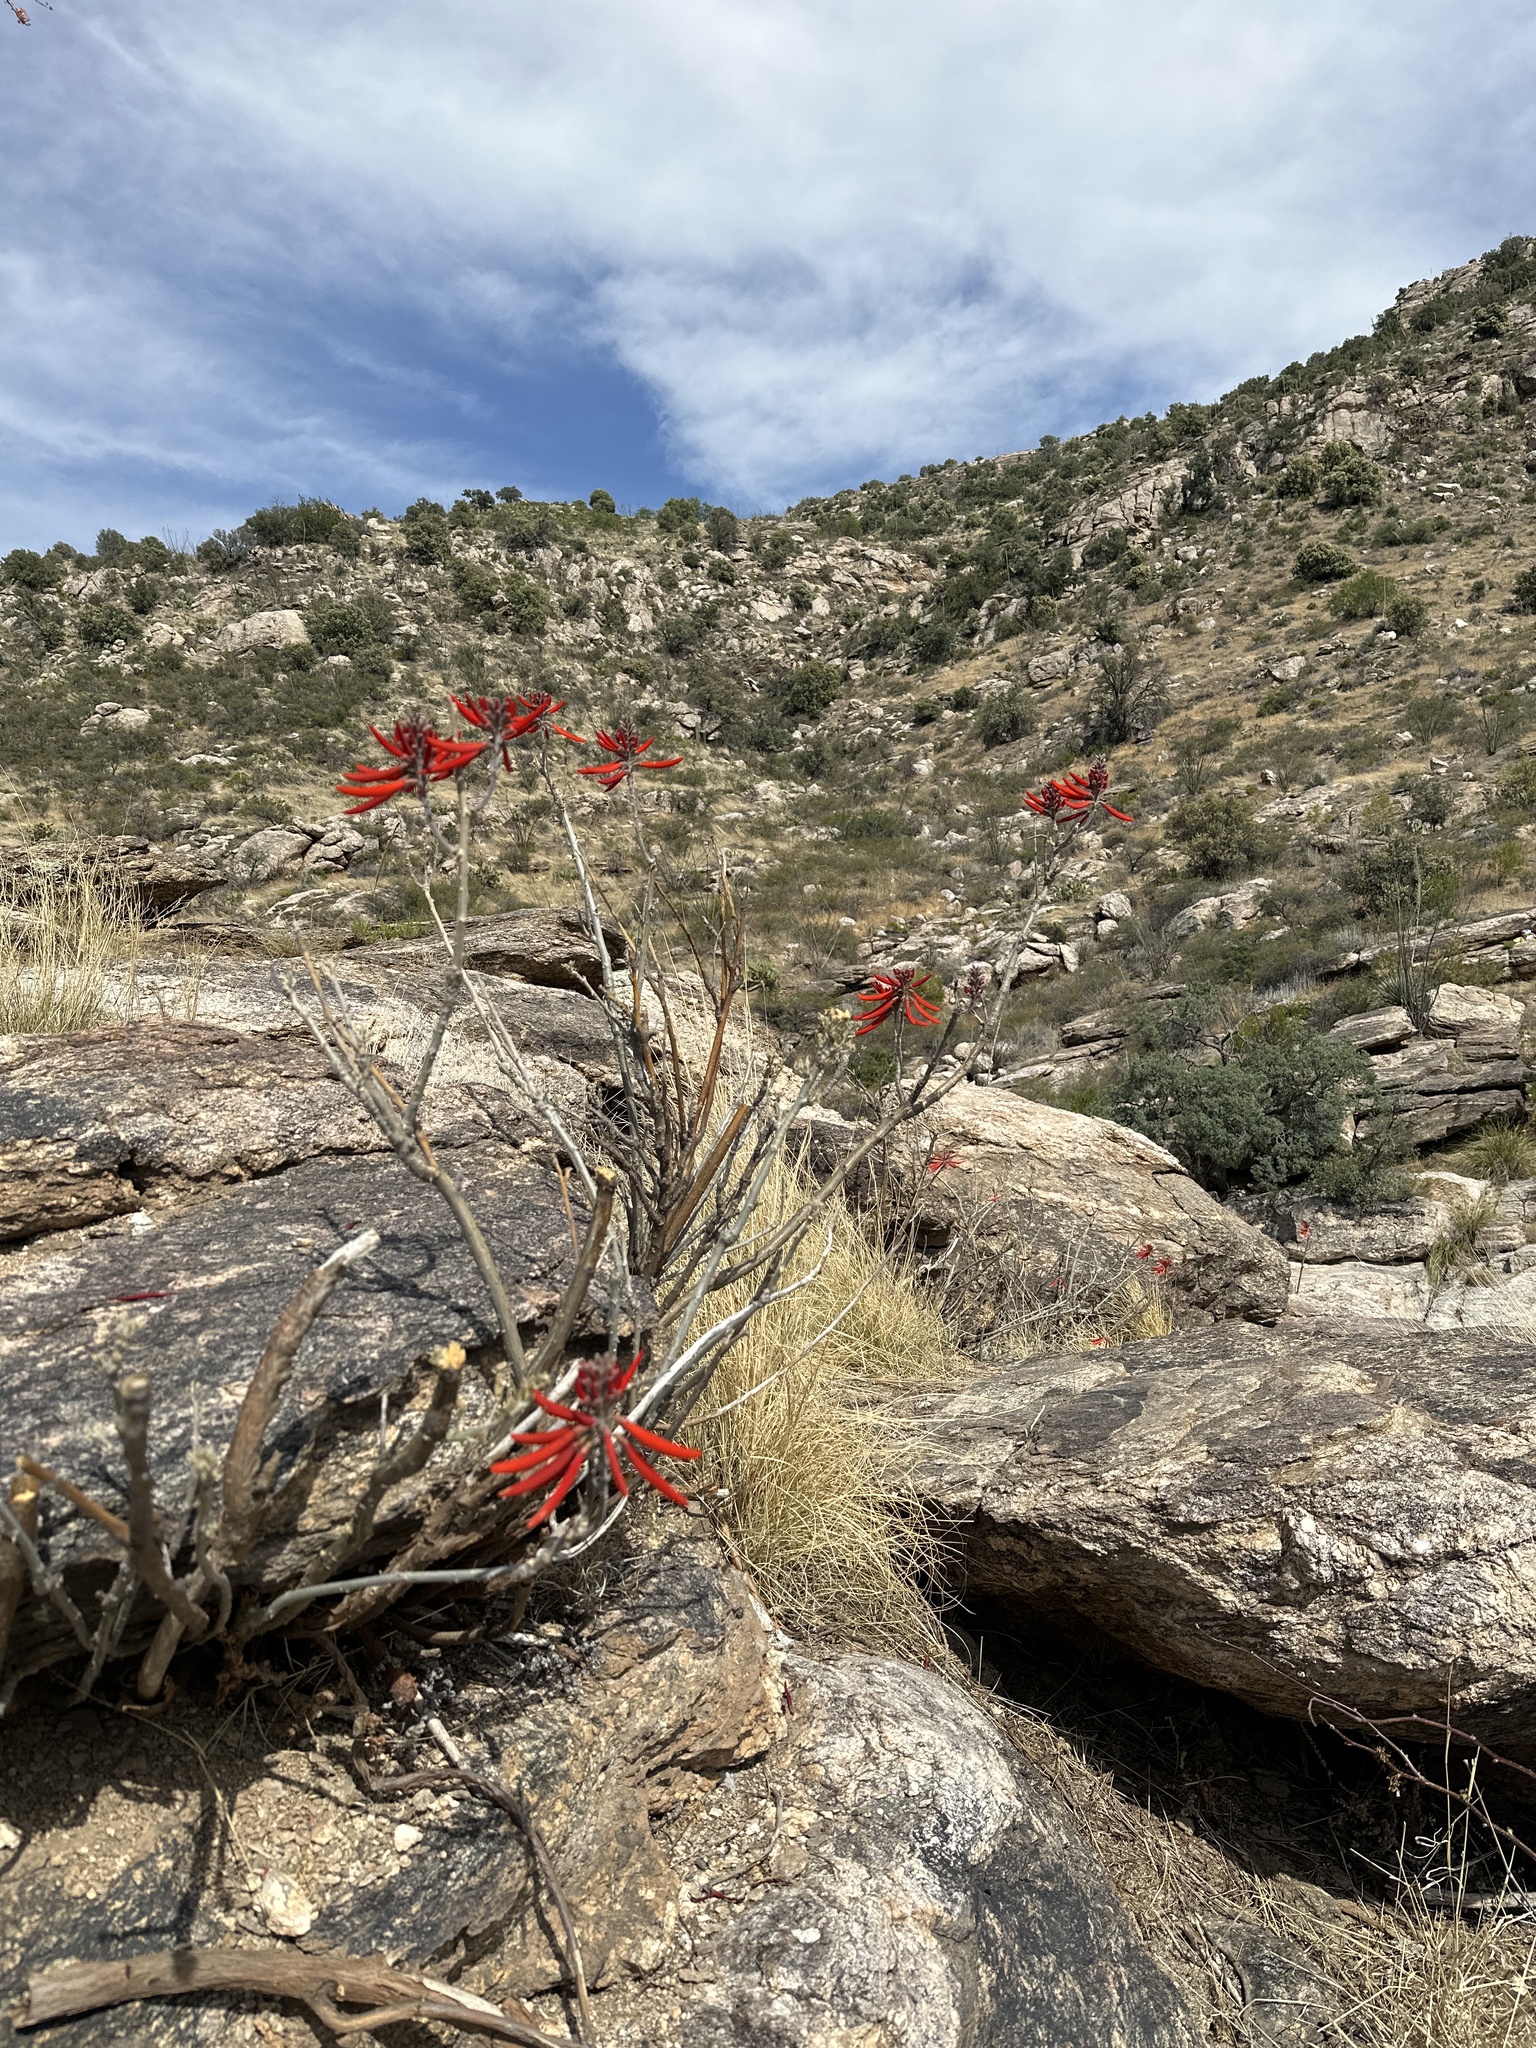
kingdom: Plantae
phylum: Tracheophyta
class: Magnoliopsida
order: Fabales
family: Fabaceae
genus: Erythrina
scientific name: Erythrina flabelliformis
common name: Chilicote
